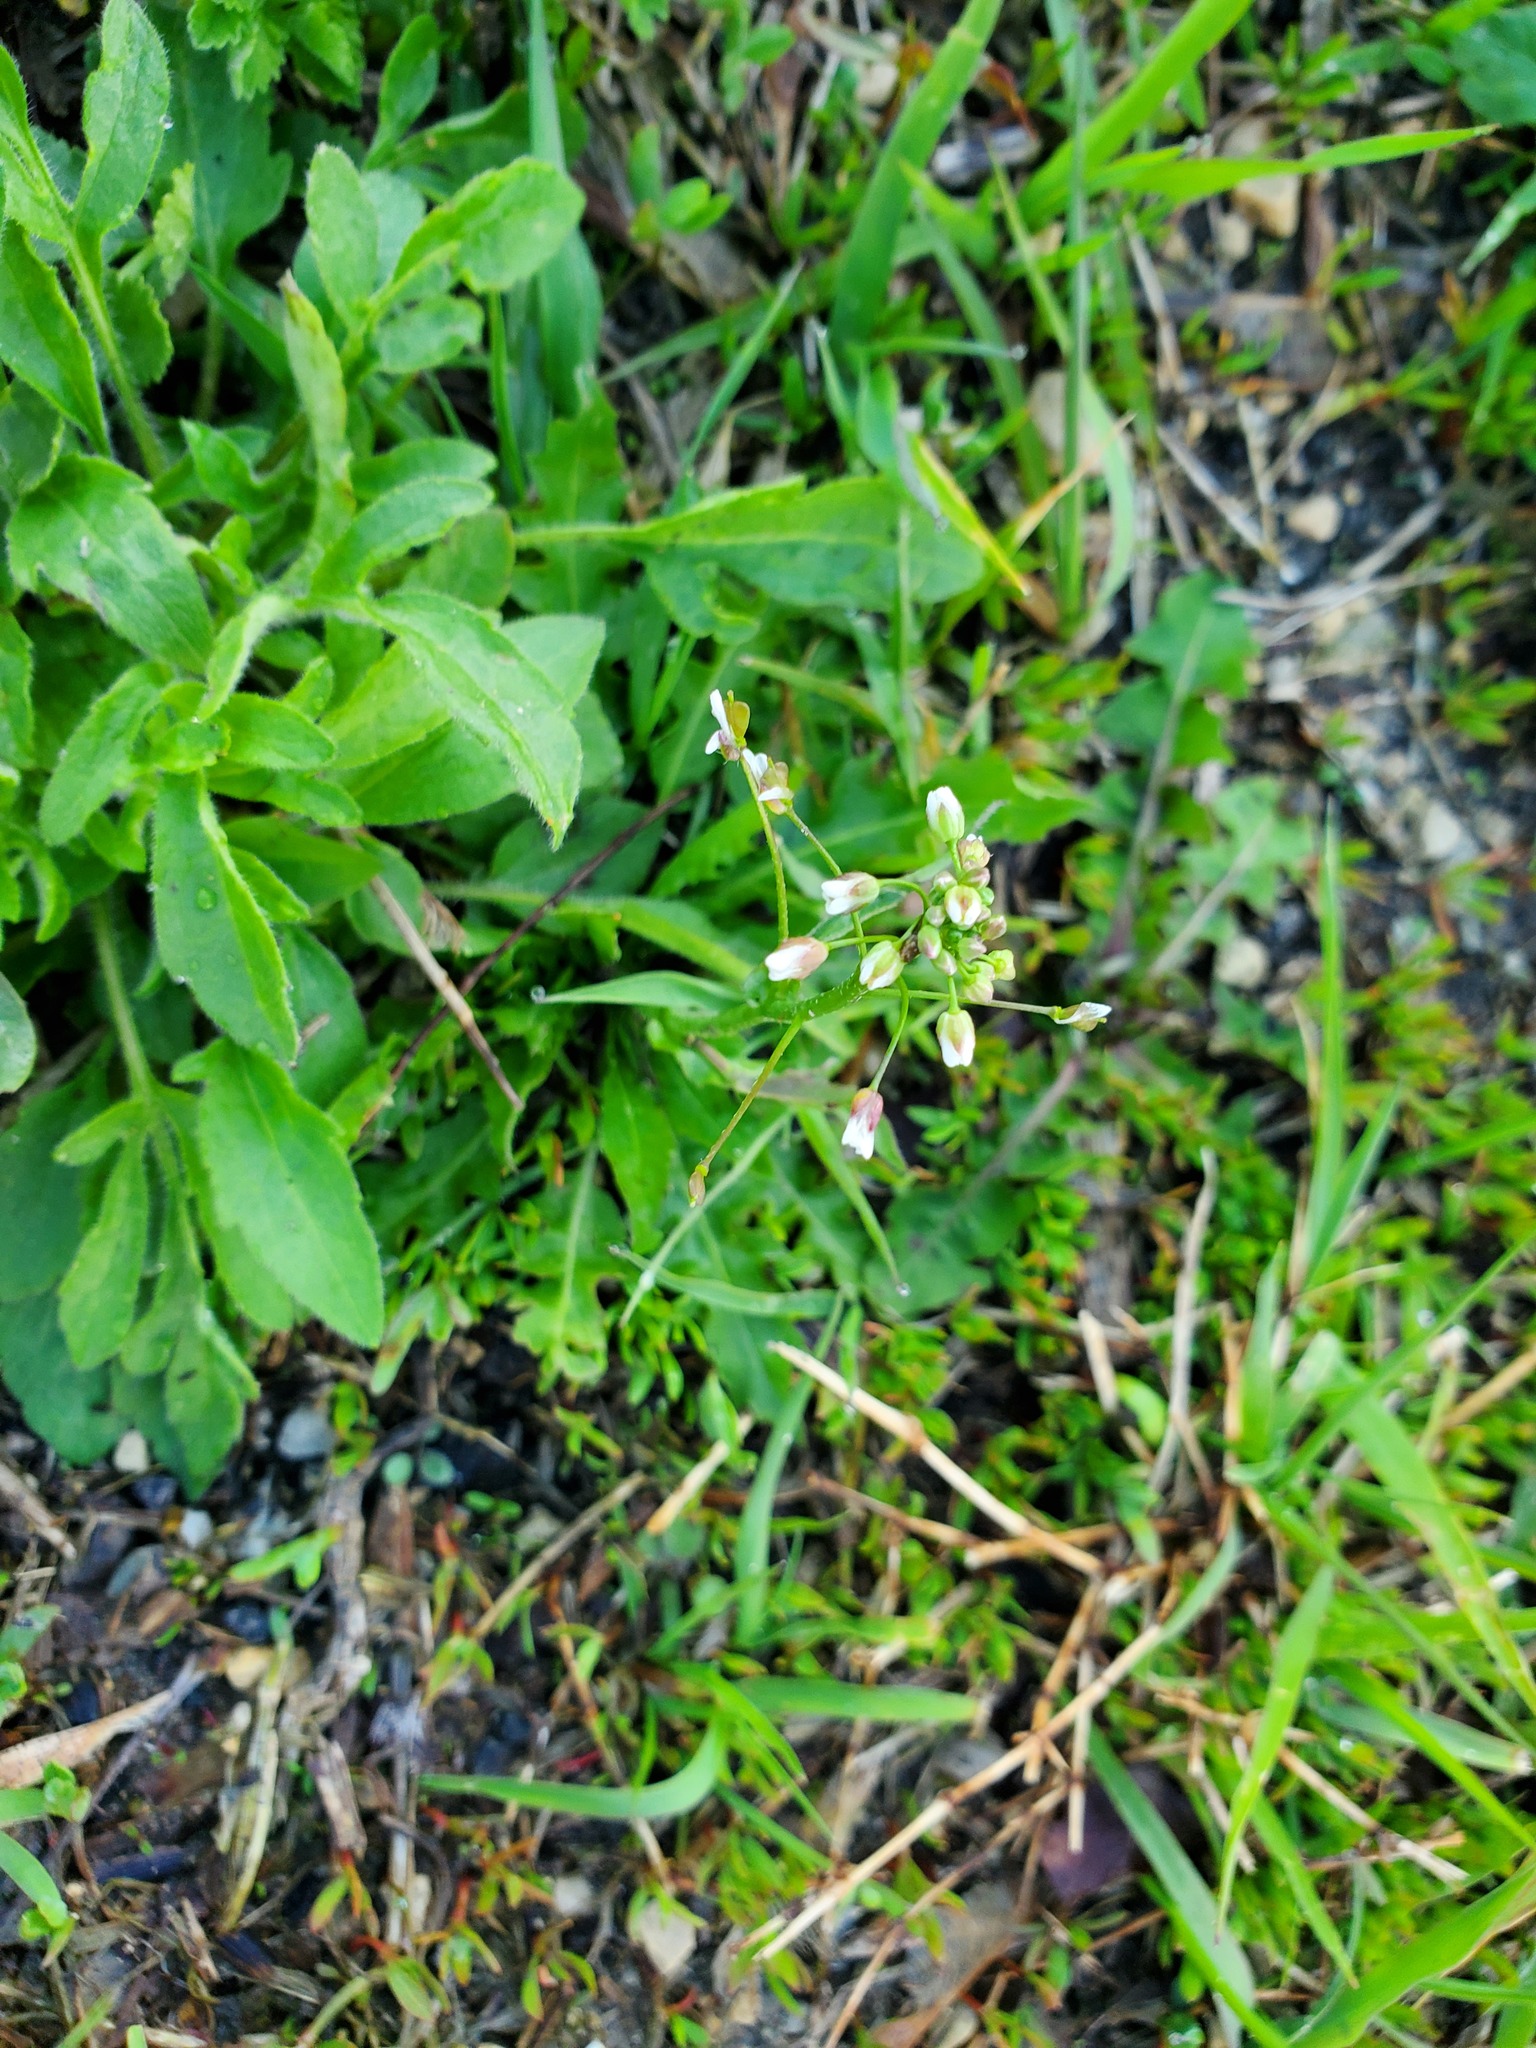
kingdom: Plantae
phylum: Tracheophyta
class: Magnoliopsida
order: Brassicales
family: Brassicaceae
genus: Capsella
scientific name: Capsella bursa-pastoris
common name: Shepherd's purse
